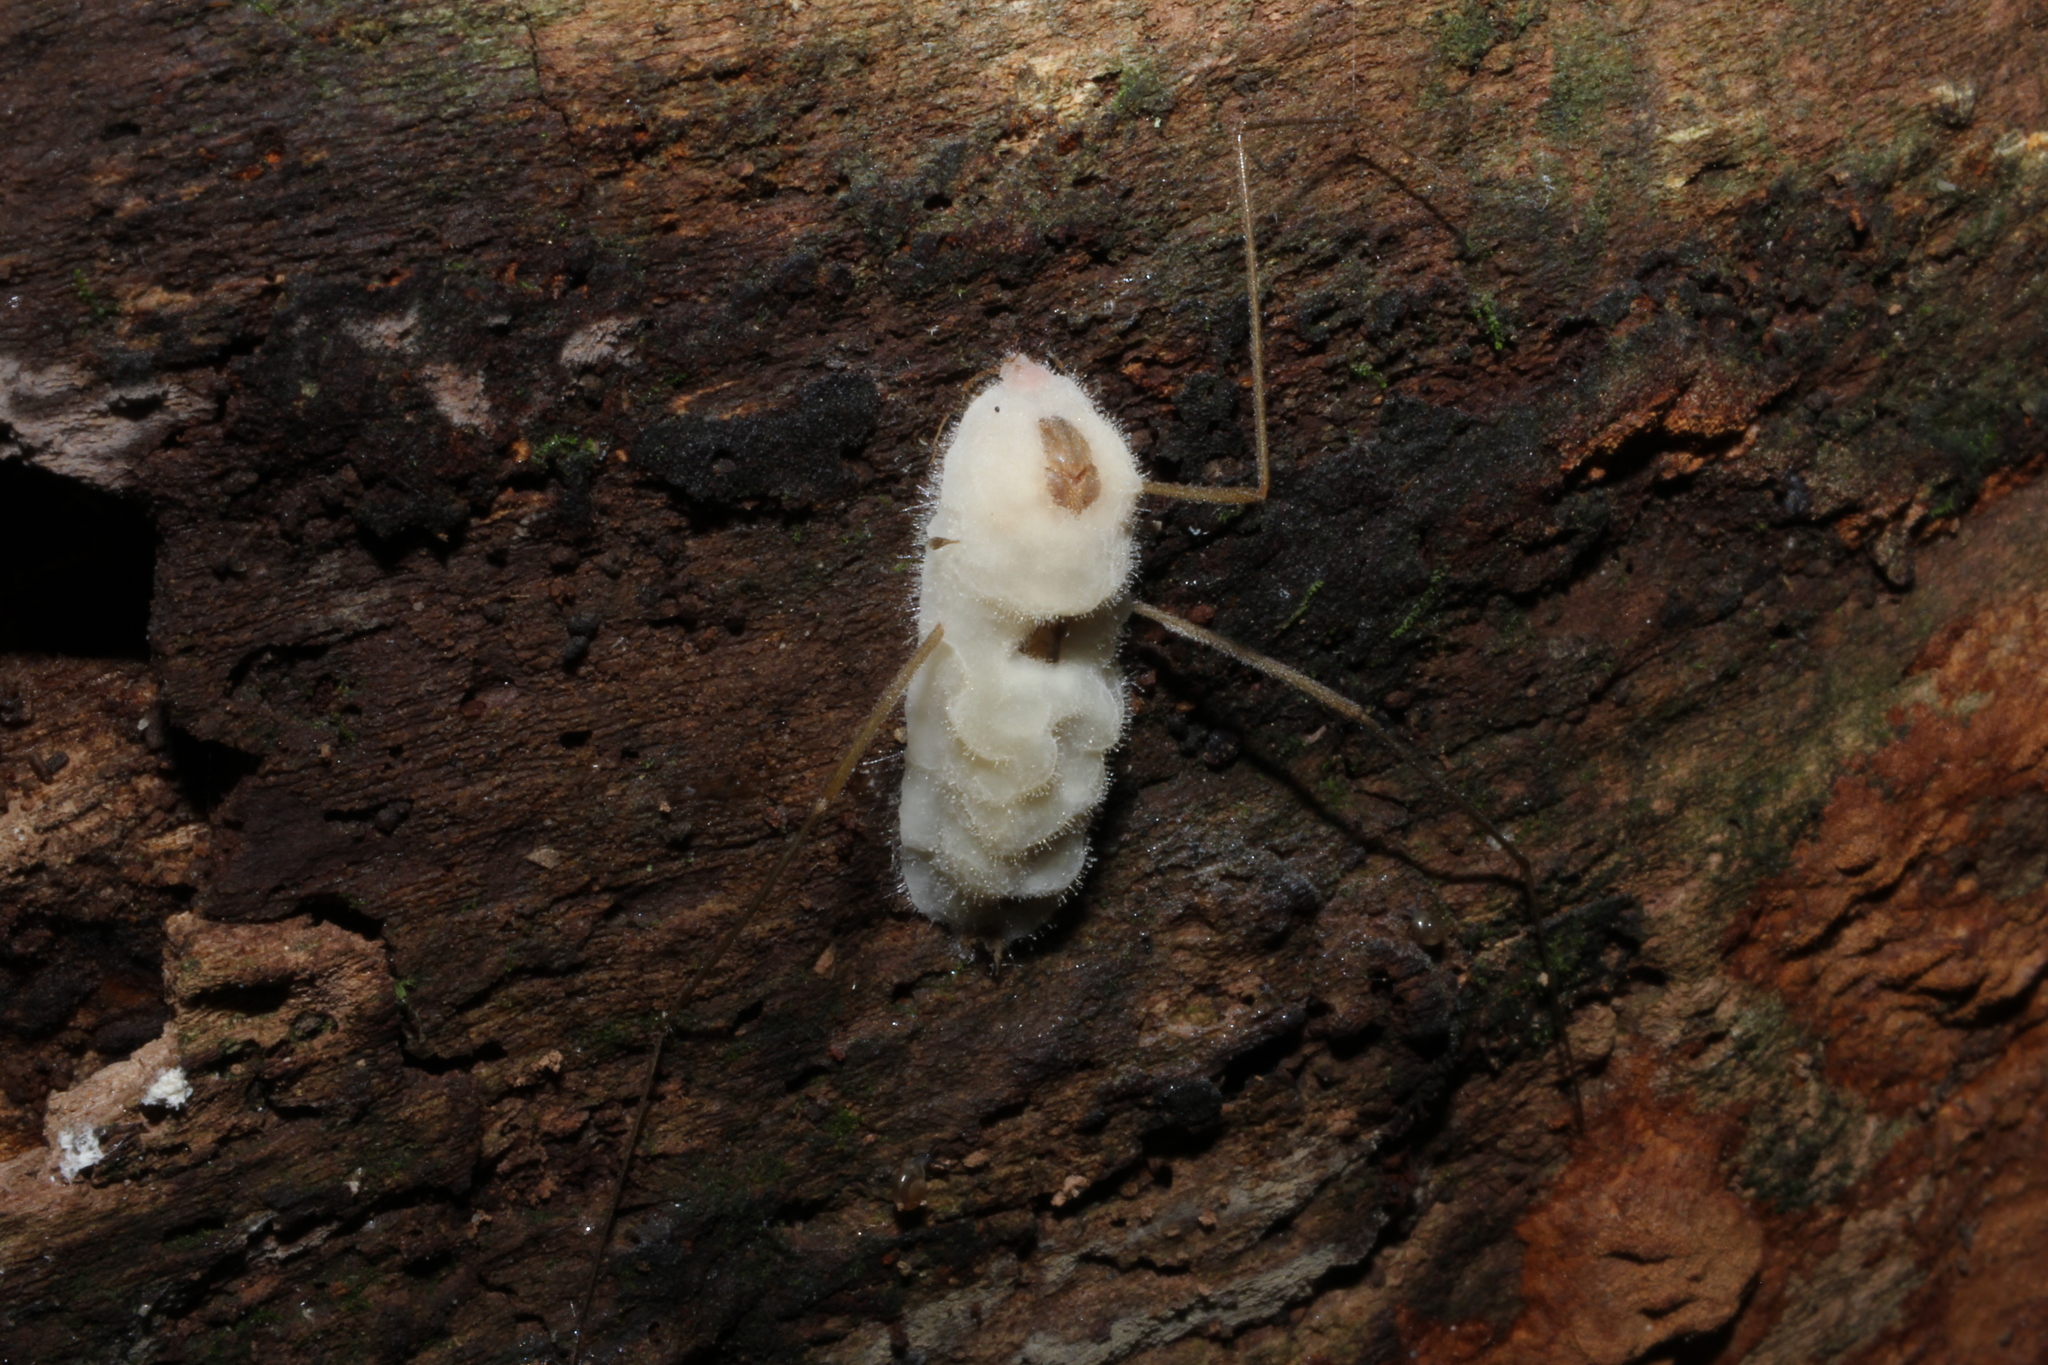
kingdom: Fungi
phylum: Entomophthoromycota
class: Entomophthoromycetes
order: Entomophthorales
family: Entomophthoraceae
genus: Erynia
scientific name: Erynia sepulchralis
